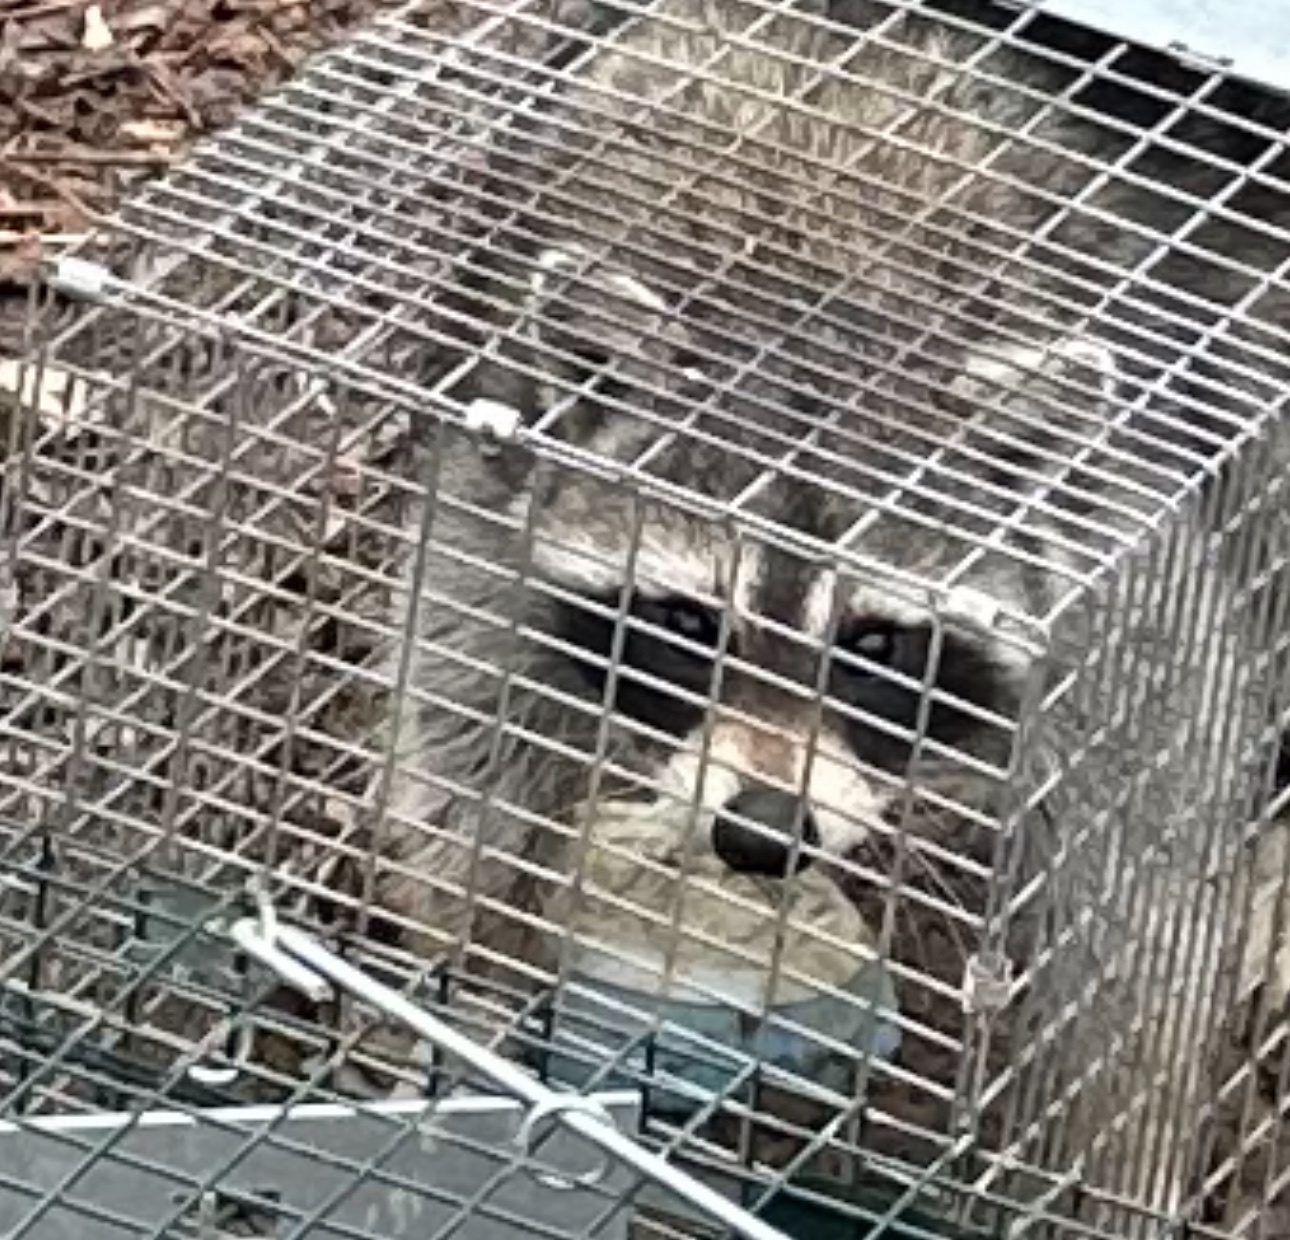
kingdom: Animalia
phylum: Chordata
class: Mammalia
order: Carnivora
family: Procyonidae
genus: Procyon
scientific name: Procyon lotor
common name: Raccoon
